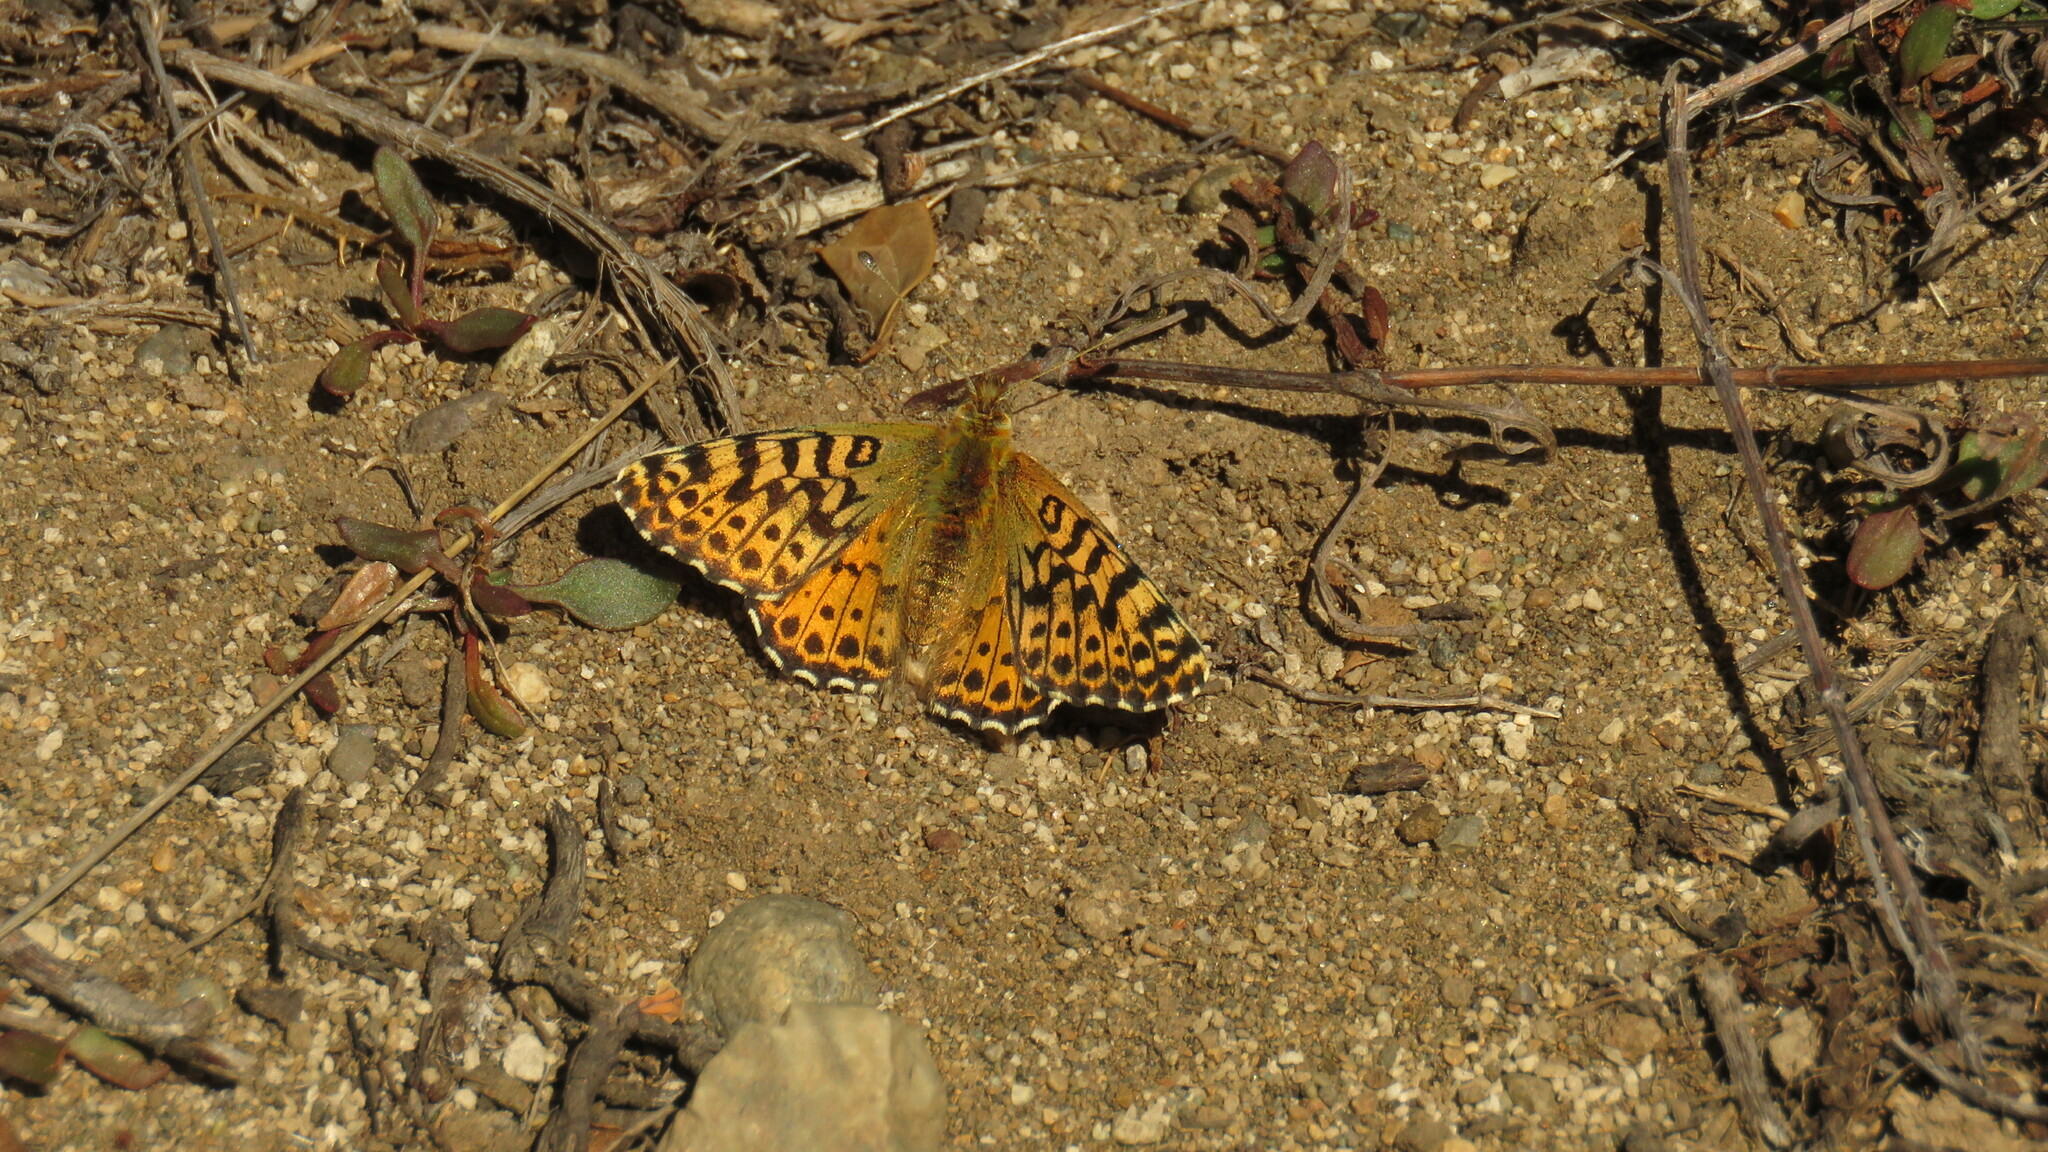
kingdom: Animalia
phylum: Arthropoda
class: Insecta
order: Lepidoptera
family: Nymphalidae
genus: Issoria
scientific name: Issoria Yramea lathonoides
